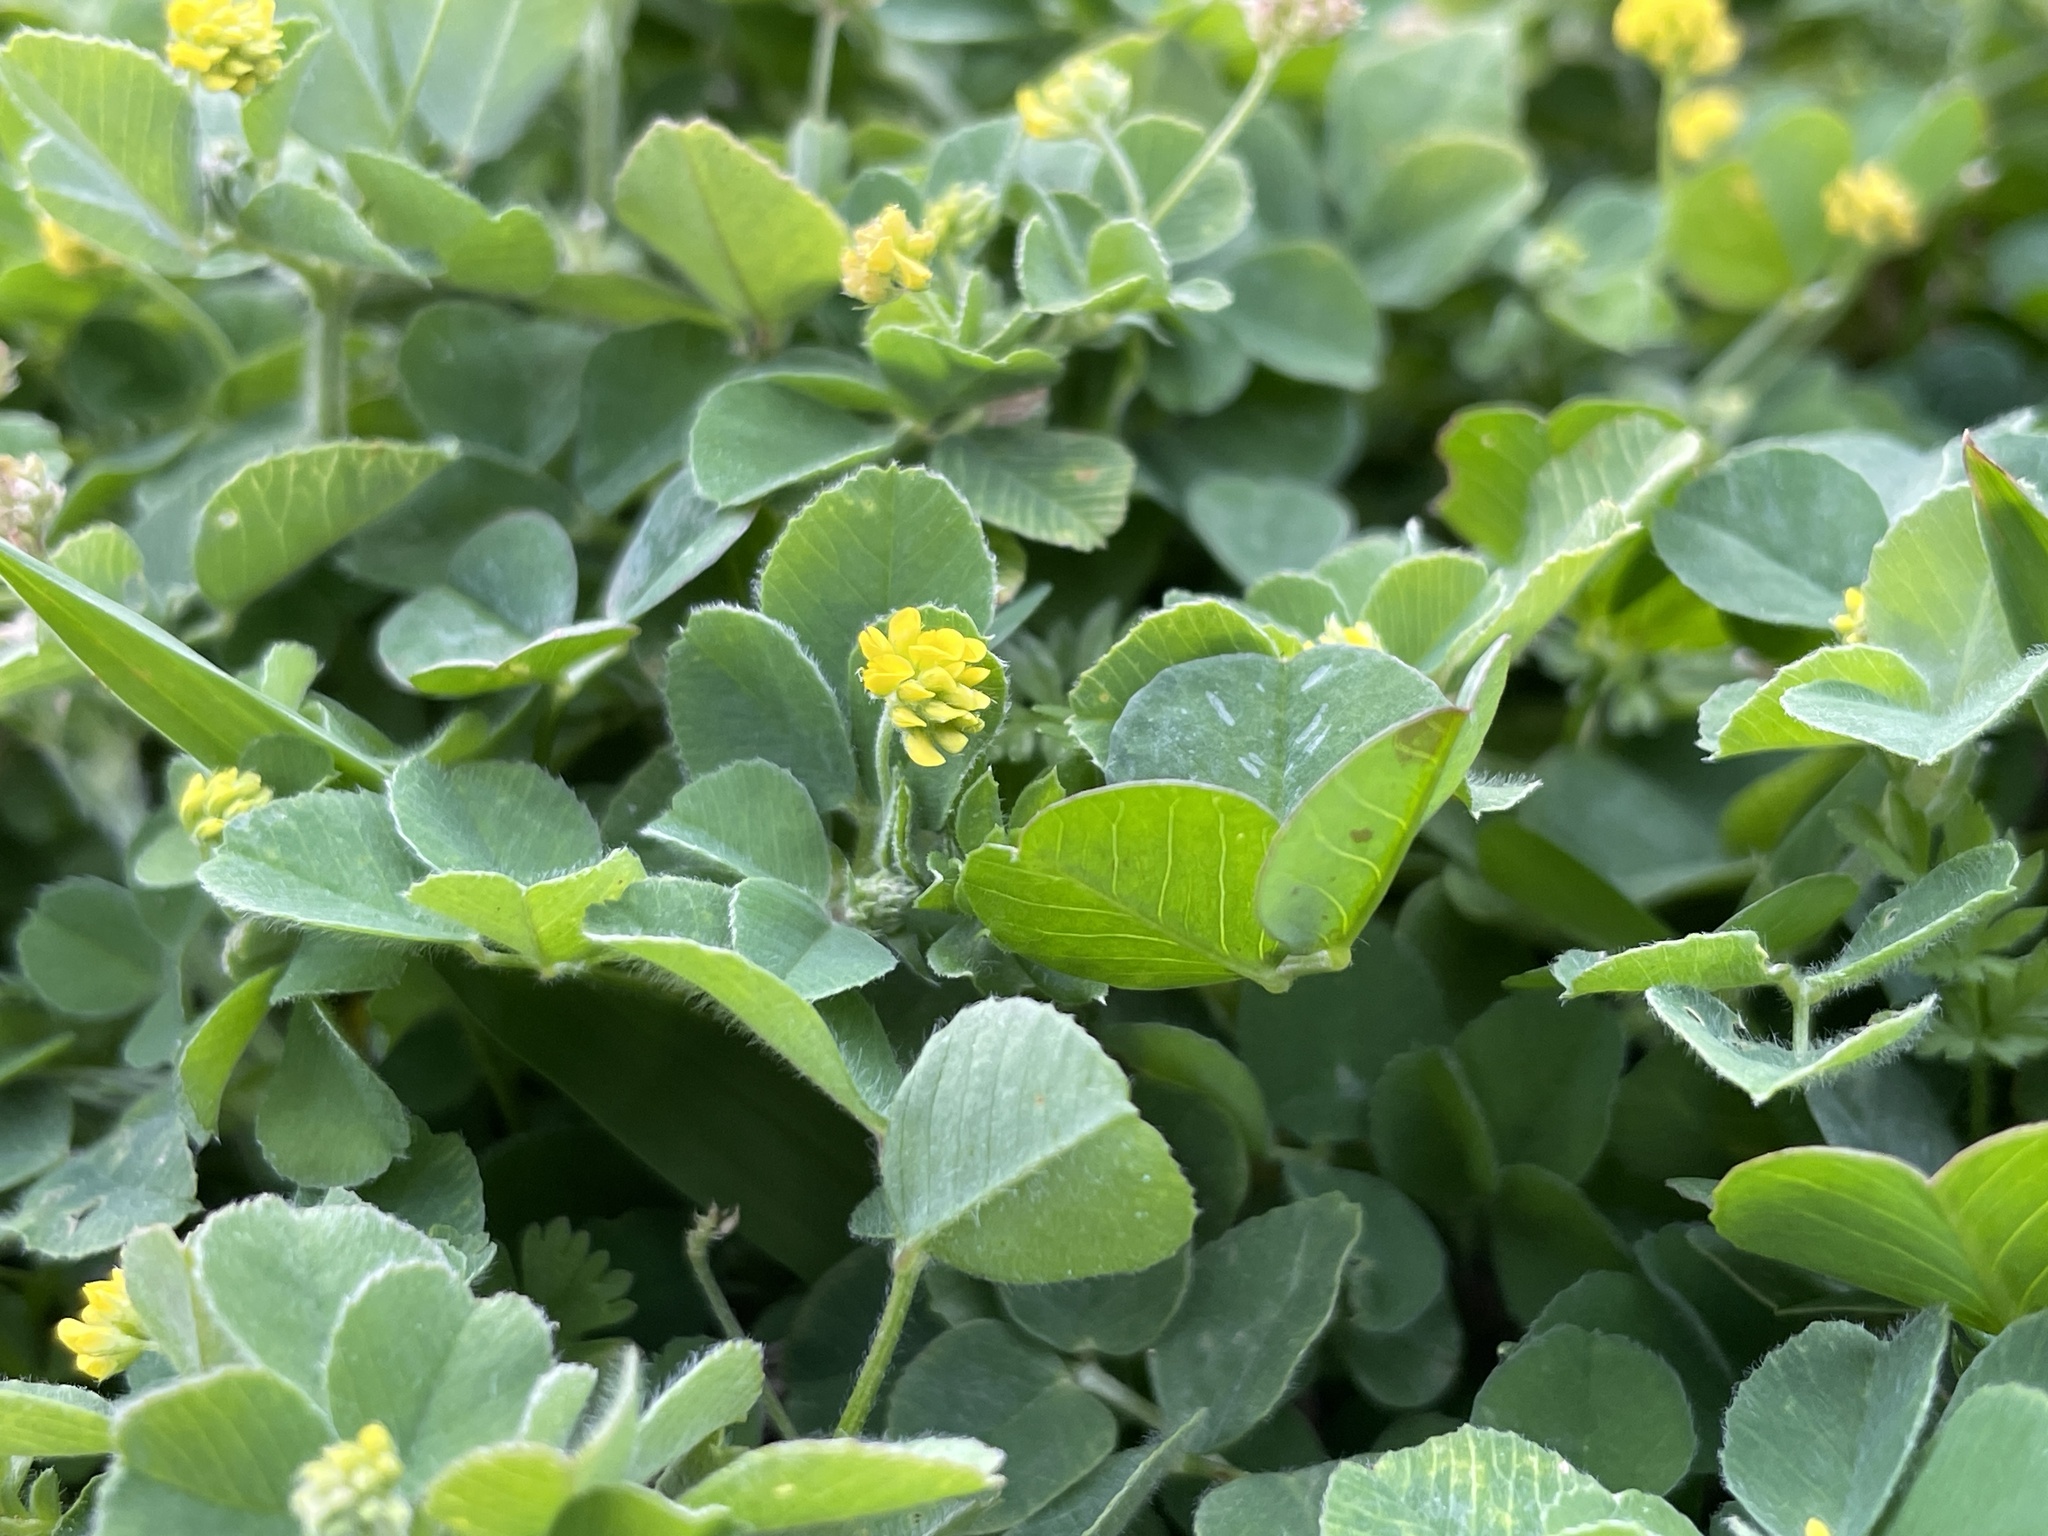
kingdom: Plantae
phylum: Tracheophyta
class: Magnoliopsida
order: Fabales
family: Fabaceae
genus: Medicago
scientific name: Medicago lupulina
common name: Black medick
